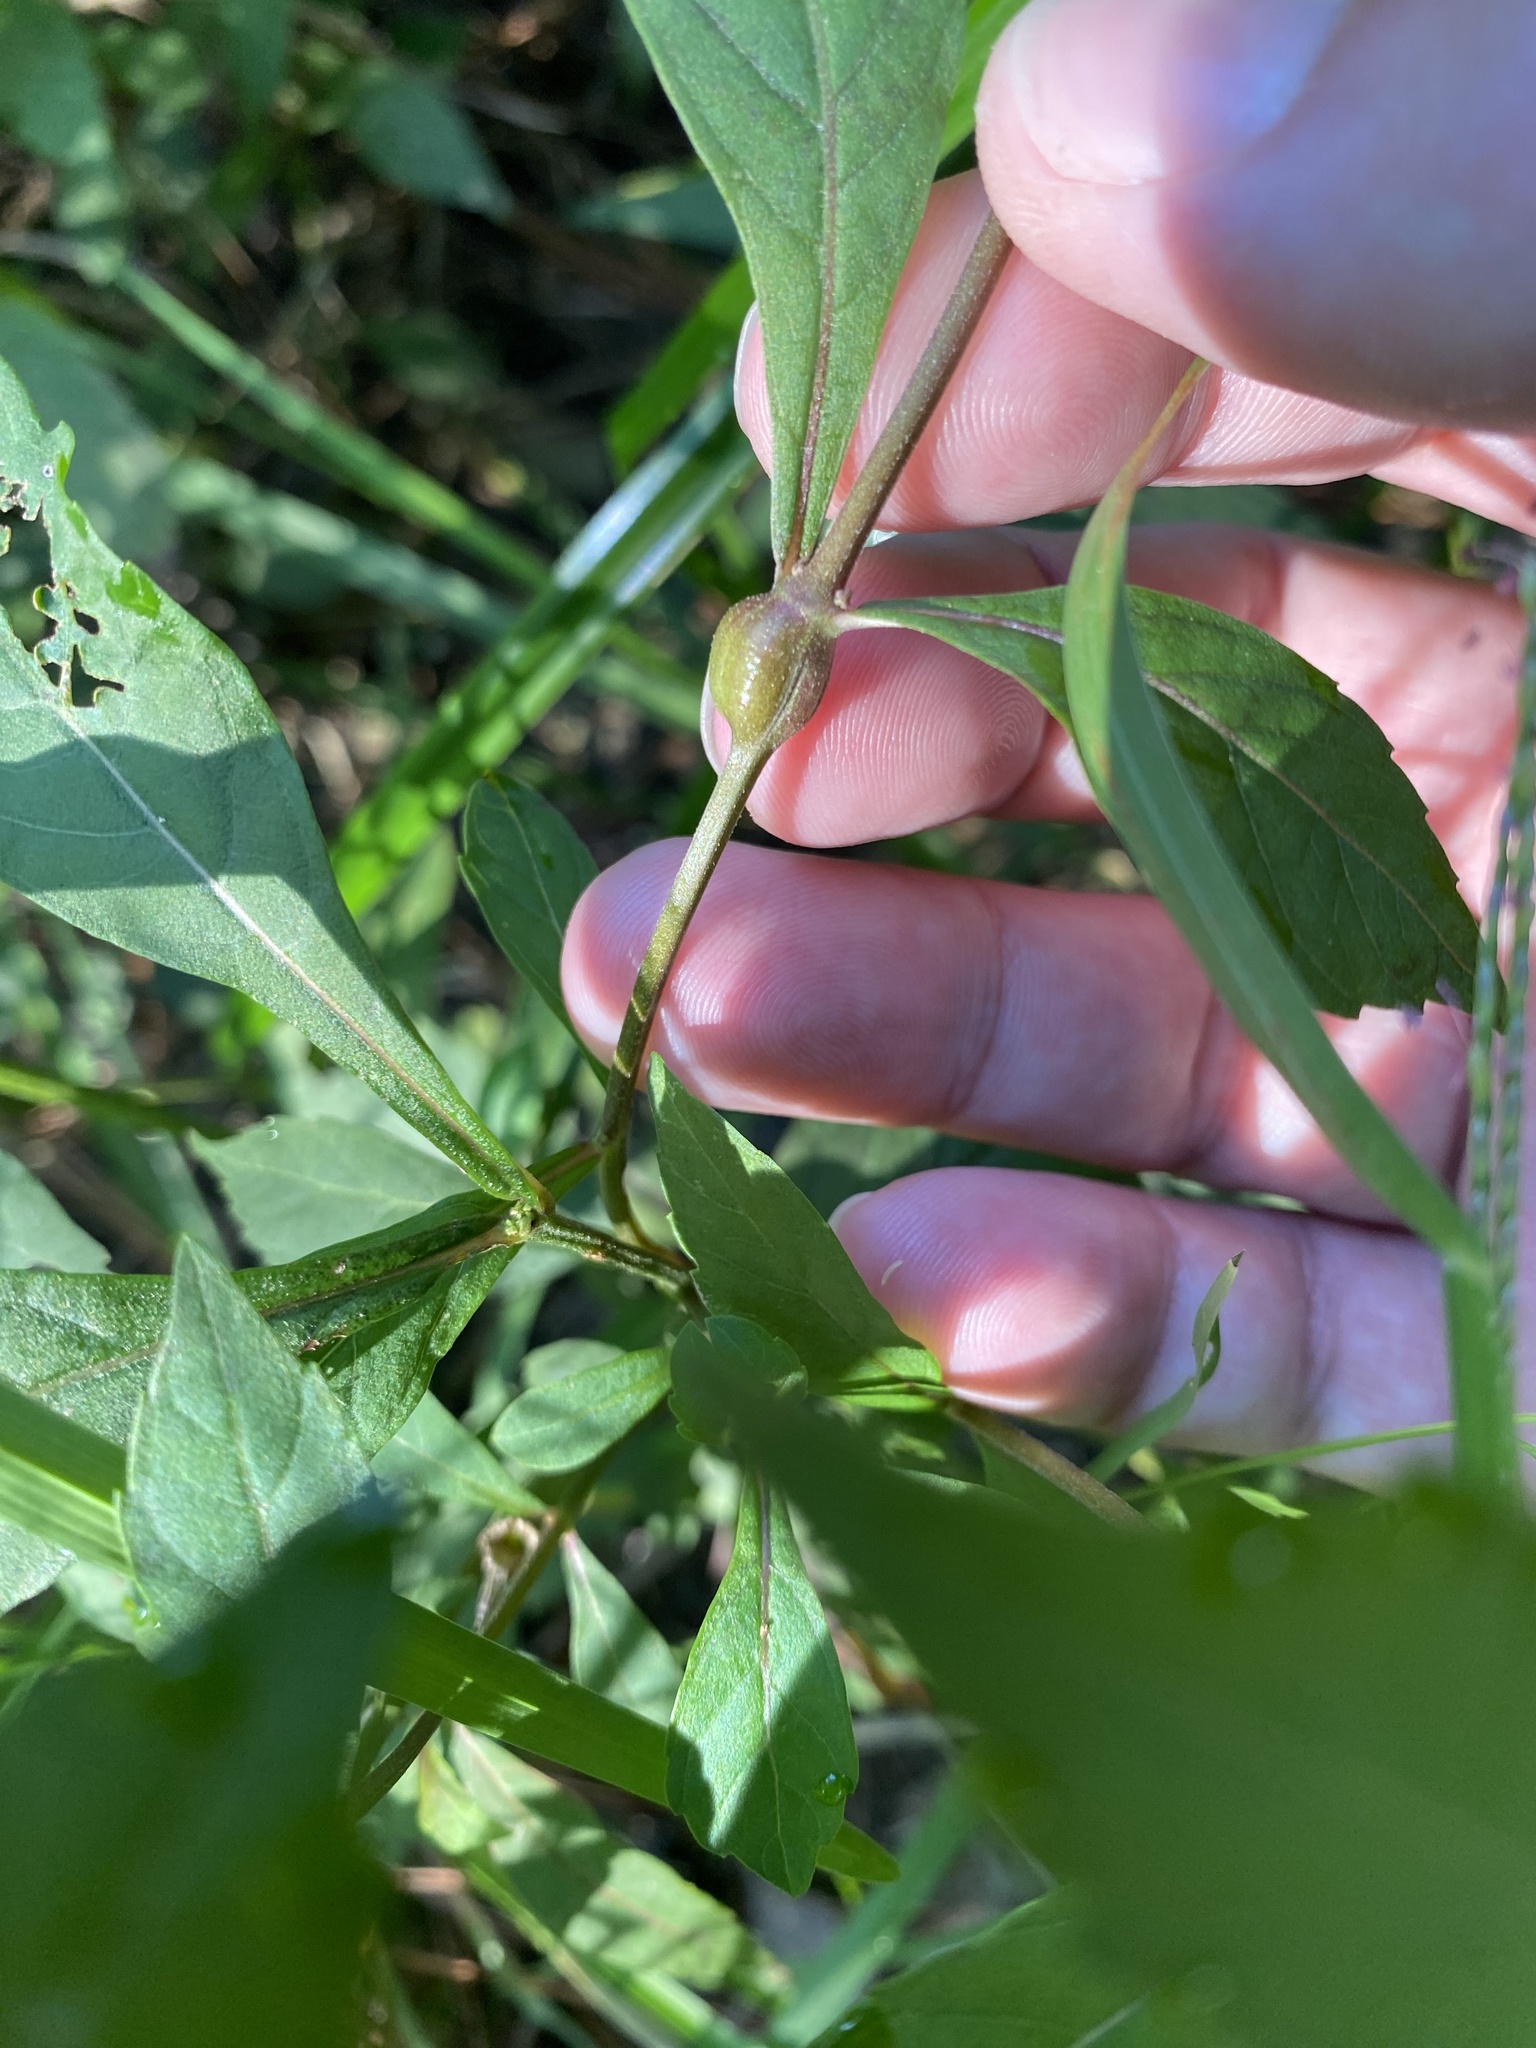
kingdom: Animalia
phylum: Arthropoda
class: Insecta
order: Diptera
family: Cecidomyiidae
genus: Neolasioptera
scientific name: Neolasioptera lycopi
